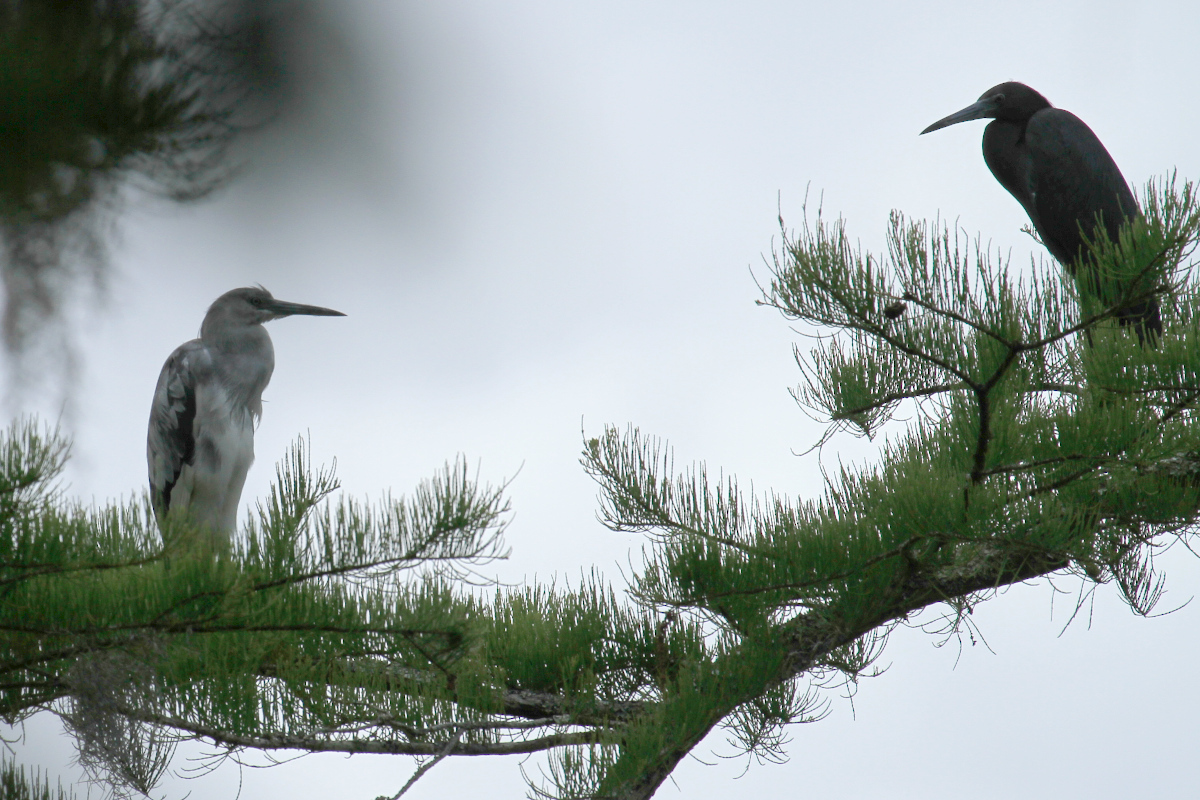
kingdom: Animalia
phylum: Chordata
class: Aves
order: Pelecaniformes
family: Ardeidae
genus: Egretta
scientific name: Egretta caerulea
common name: Little blue heron
